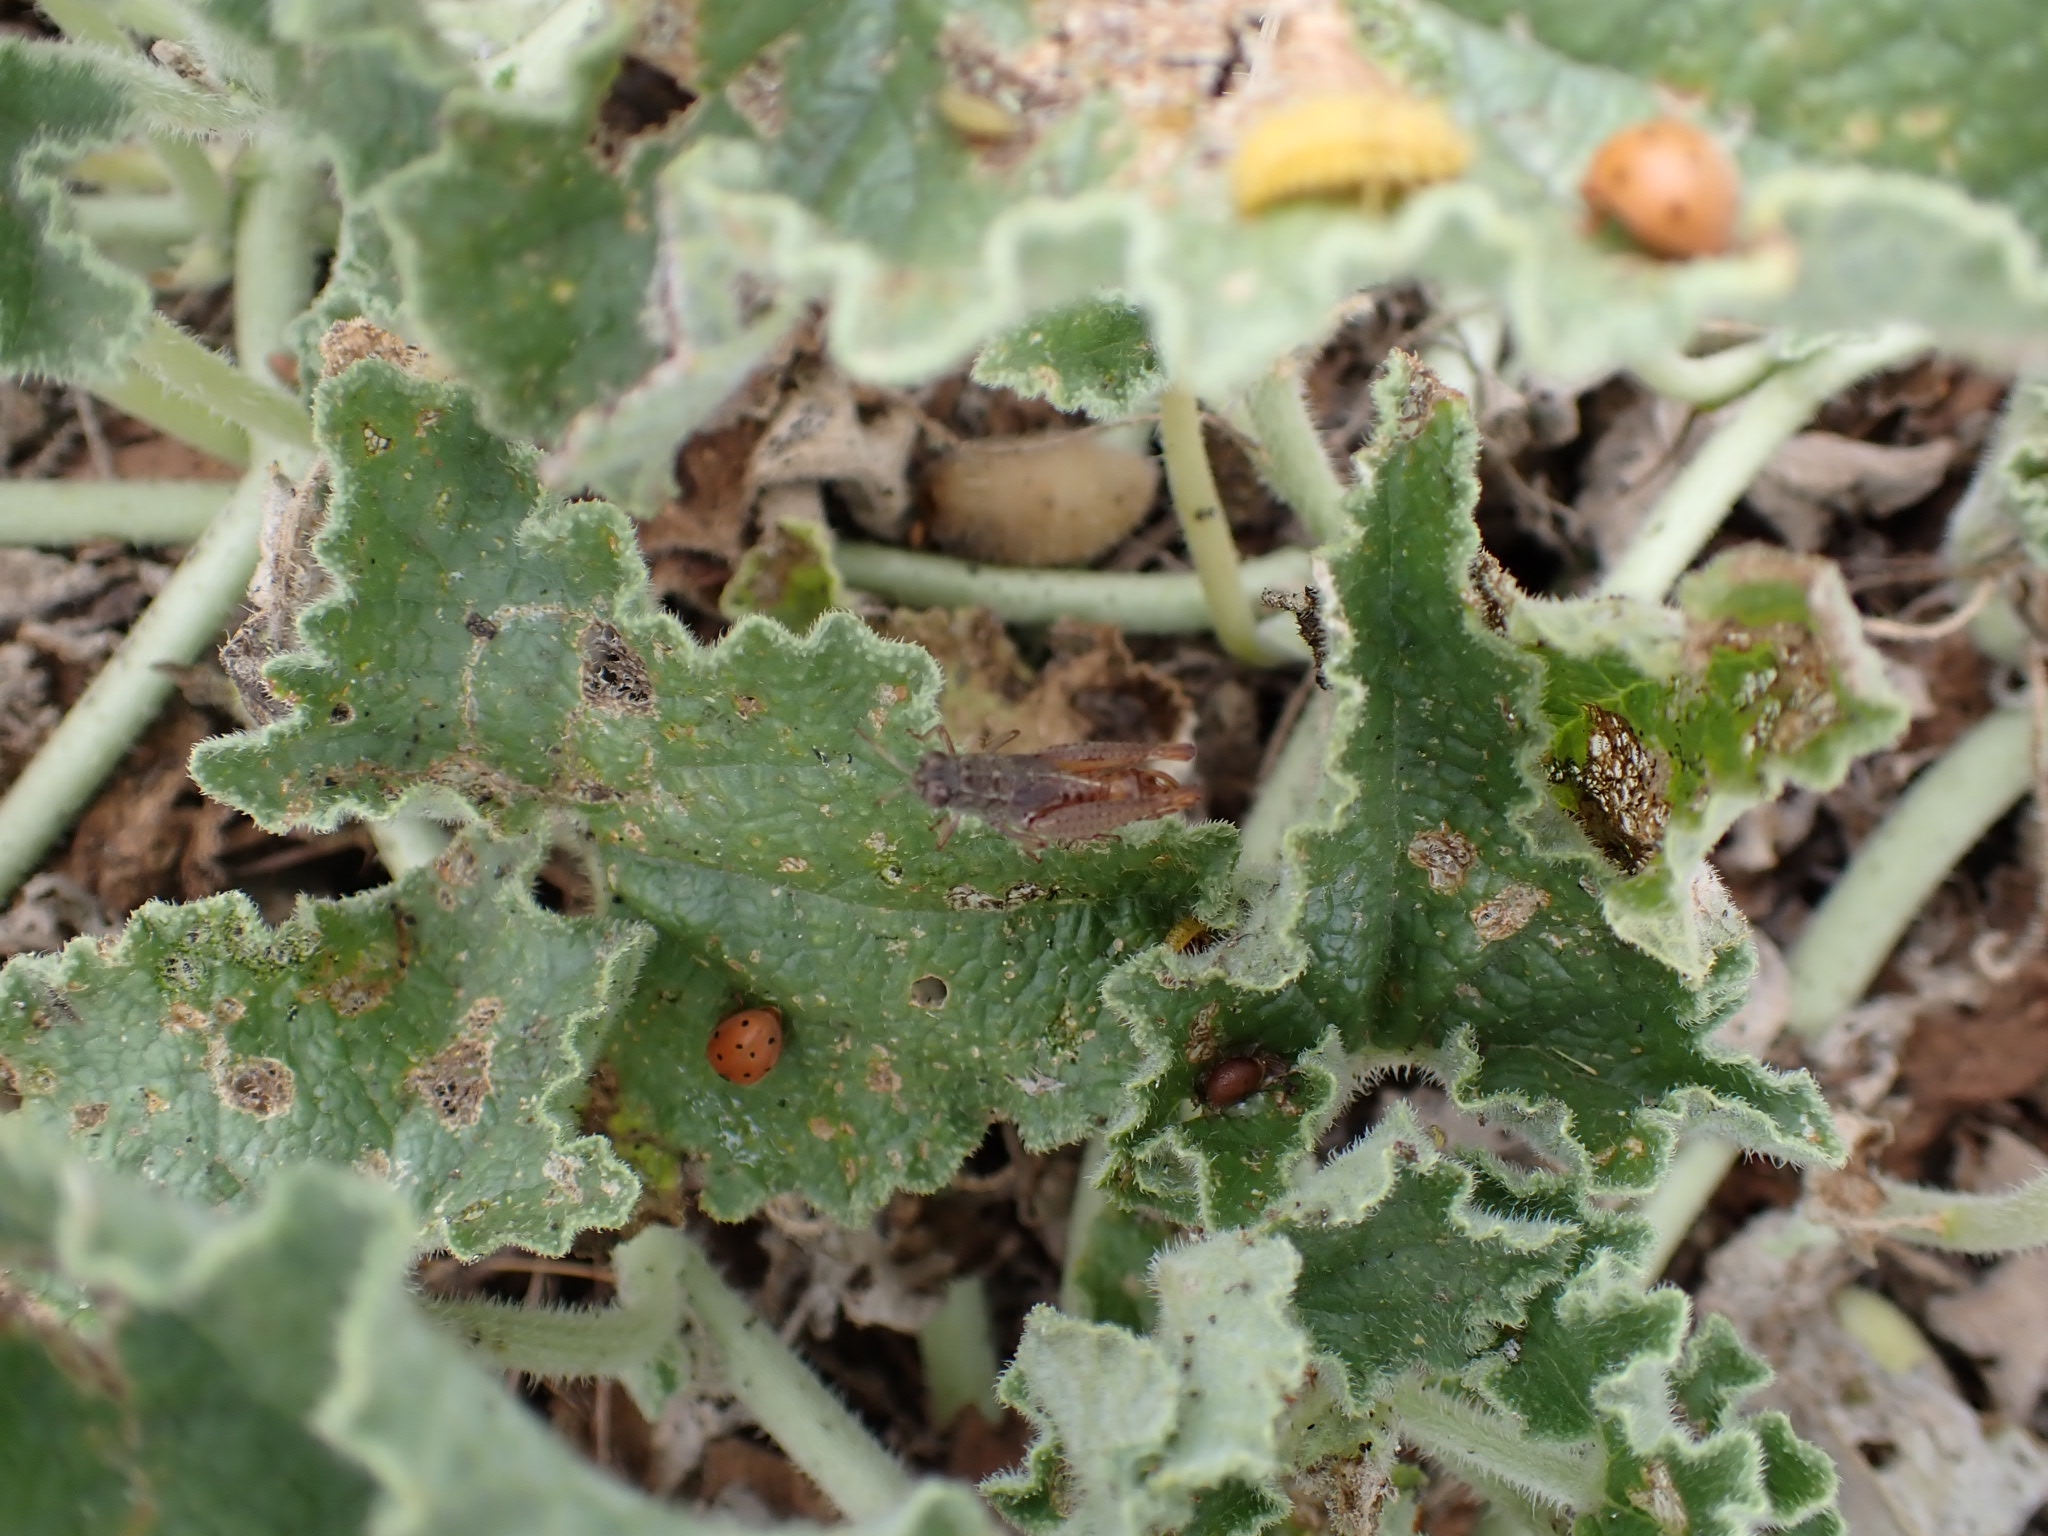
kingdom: Animalia
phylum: Arthropoda
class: Insecta
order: Orthoptera
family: Acrididae
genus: Paracaloptenus
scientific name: Paracaloptenus caloptenoides
